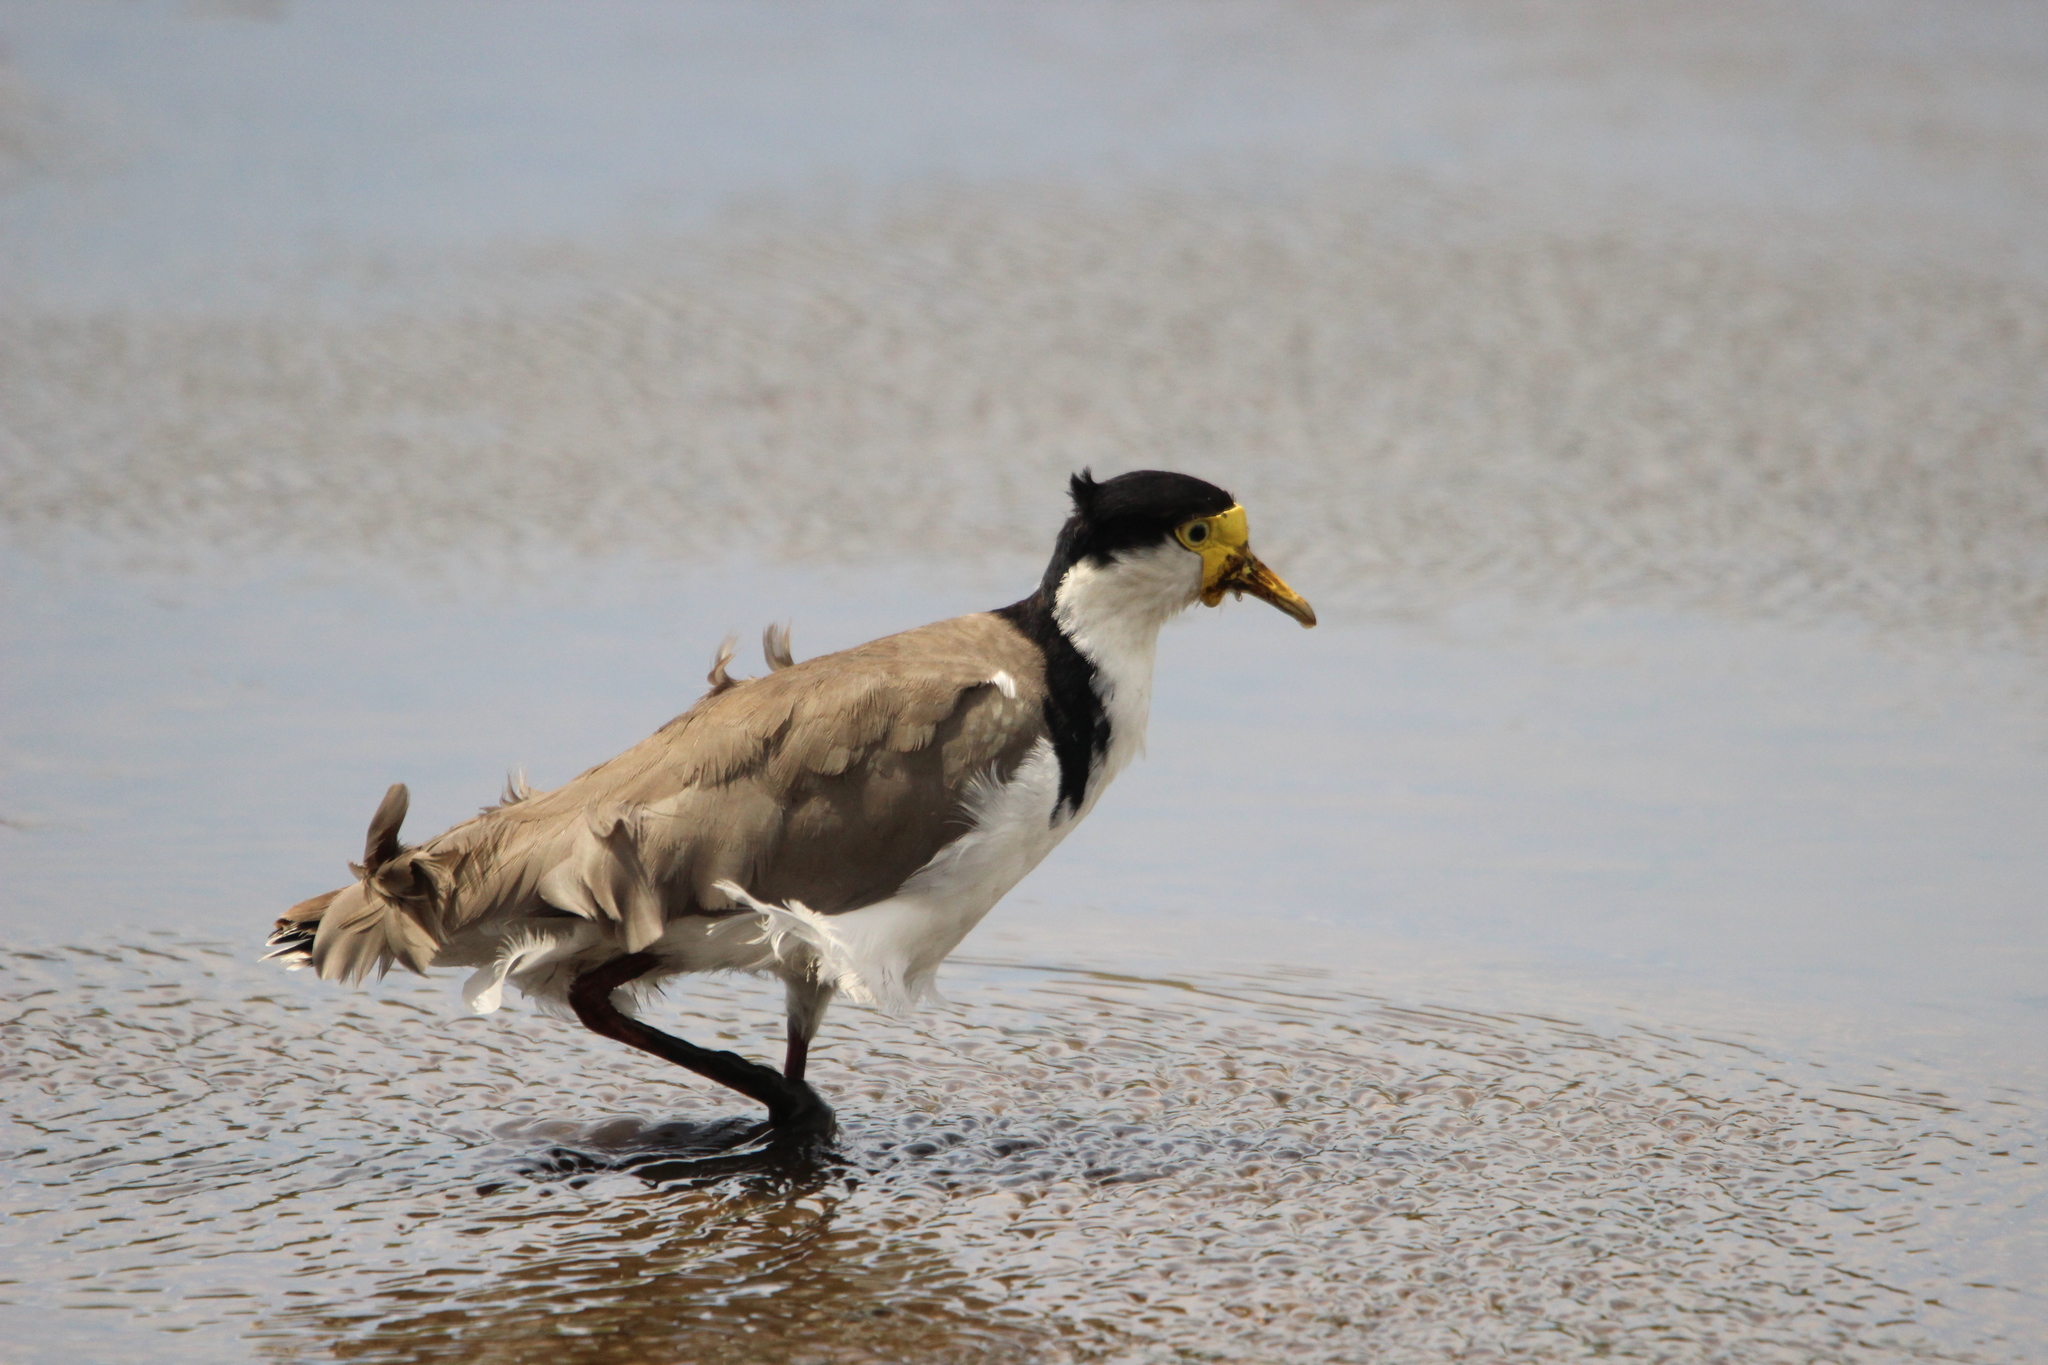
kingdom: Animalia
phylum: Chordata
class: Aves
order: Charadriiformes
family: Charadriidae
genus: Vanellus
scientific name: Vanellus miles
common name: Masked lapwing
